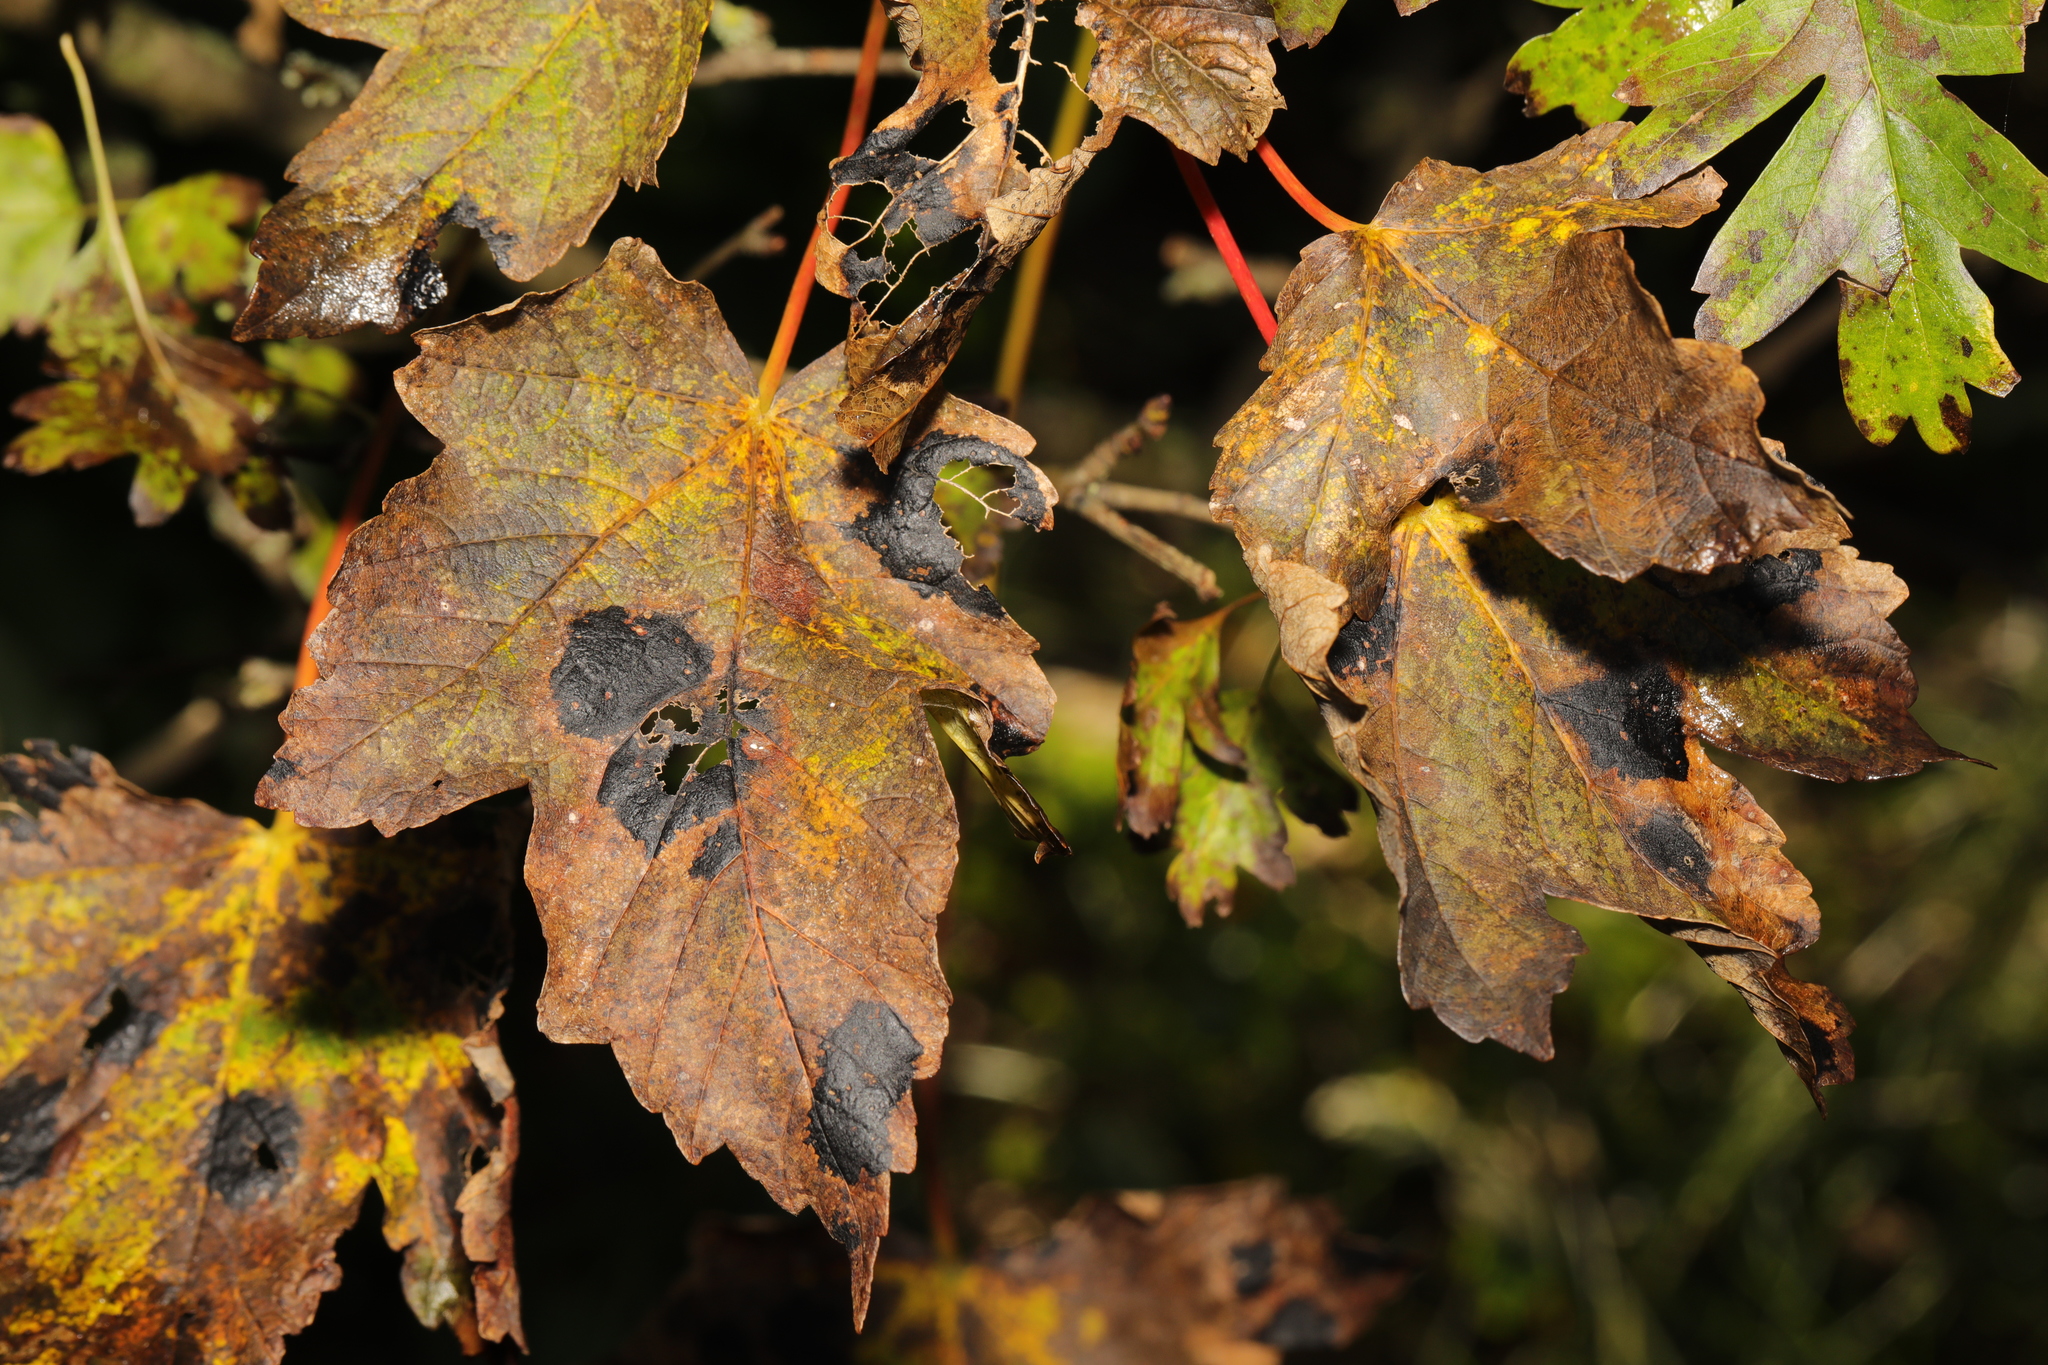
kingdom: Plantae
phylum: Tracheophyta
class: Magnoliopsida
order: Sapindales
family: Sapindaceae
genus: Acer
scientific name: Acer pseudoplatanus
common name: Sycamore
